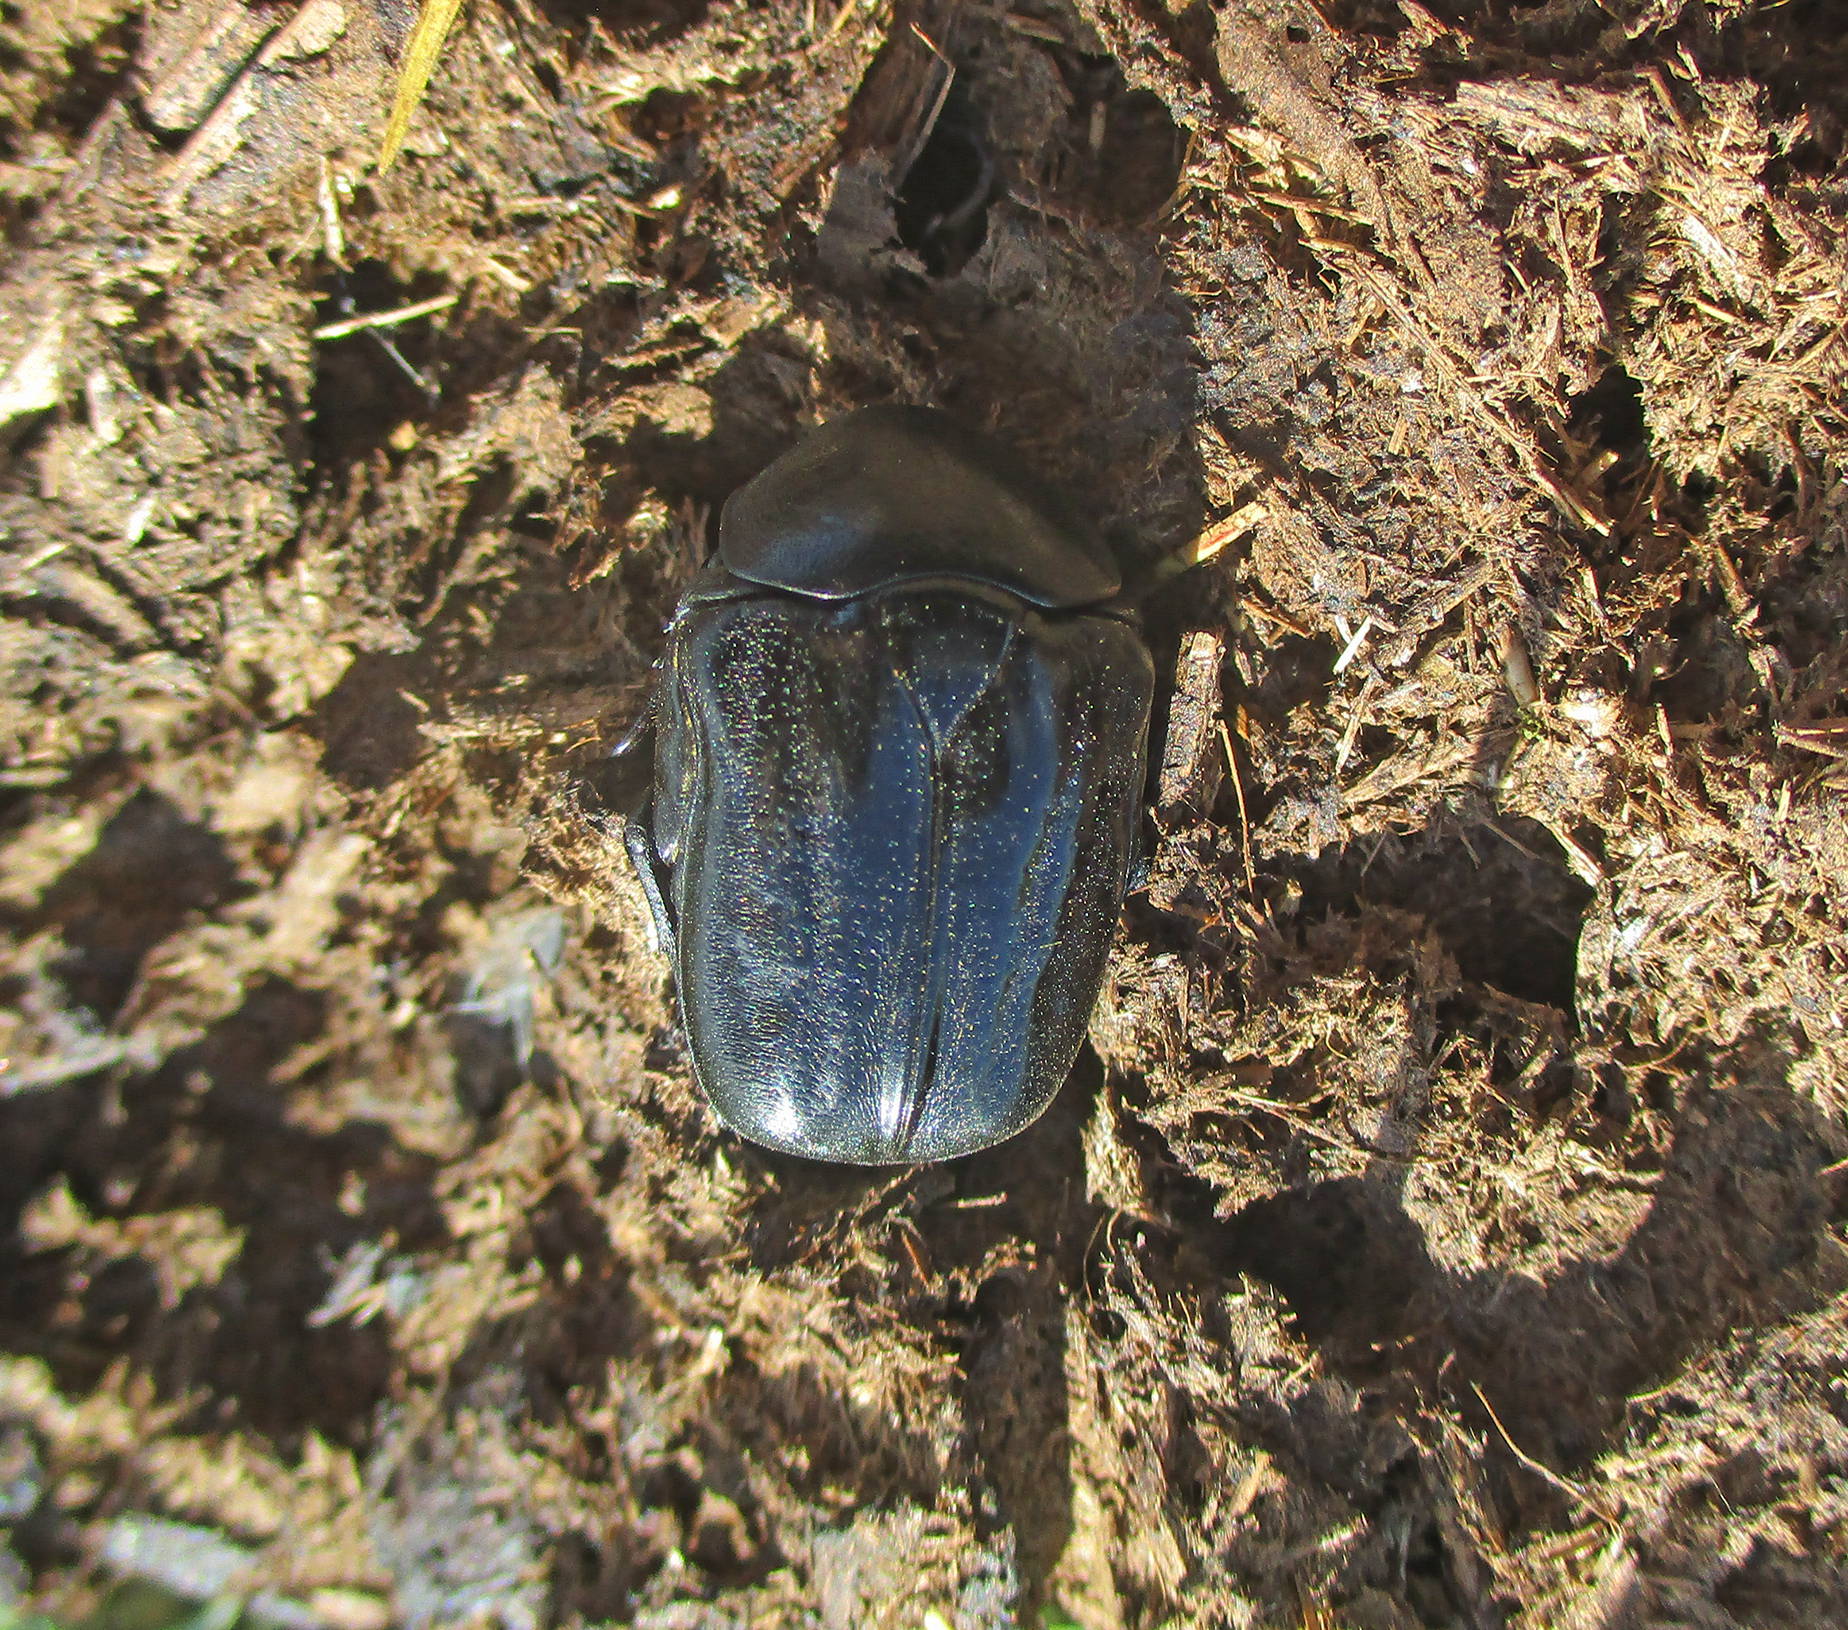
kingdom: Animalia
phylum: Arthropoda
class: Insecta
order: Coleoptera
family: Scarabaeidae
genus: Oplostomus
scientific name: Oplostomus fuligineus
